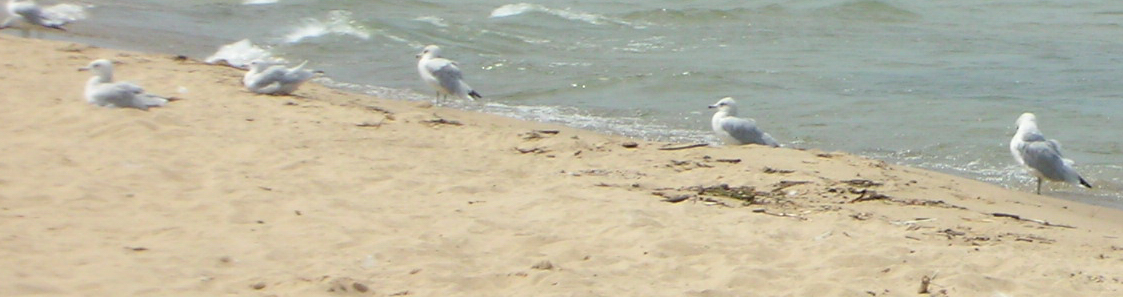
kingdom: Animalia
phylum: Chordata
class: Aves
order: Charadriiformes
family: Laridae
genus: Larus
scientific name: Larus delawarensis
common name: Ring-billed gull
